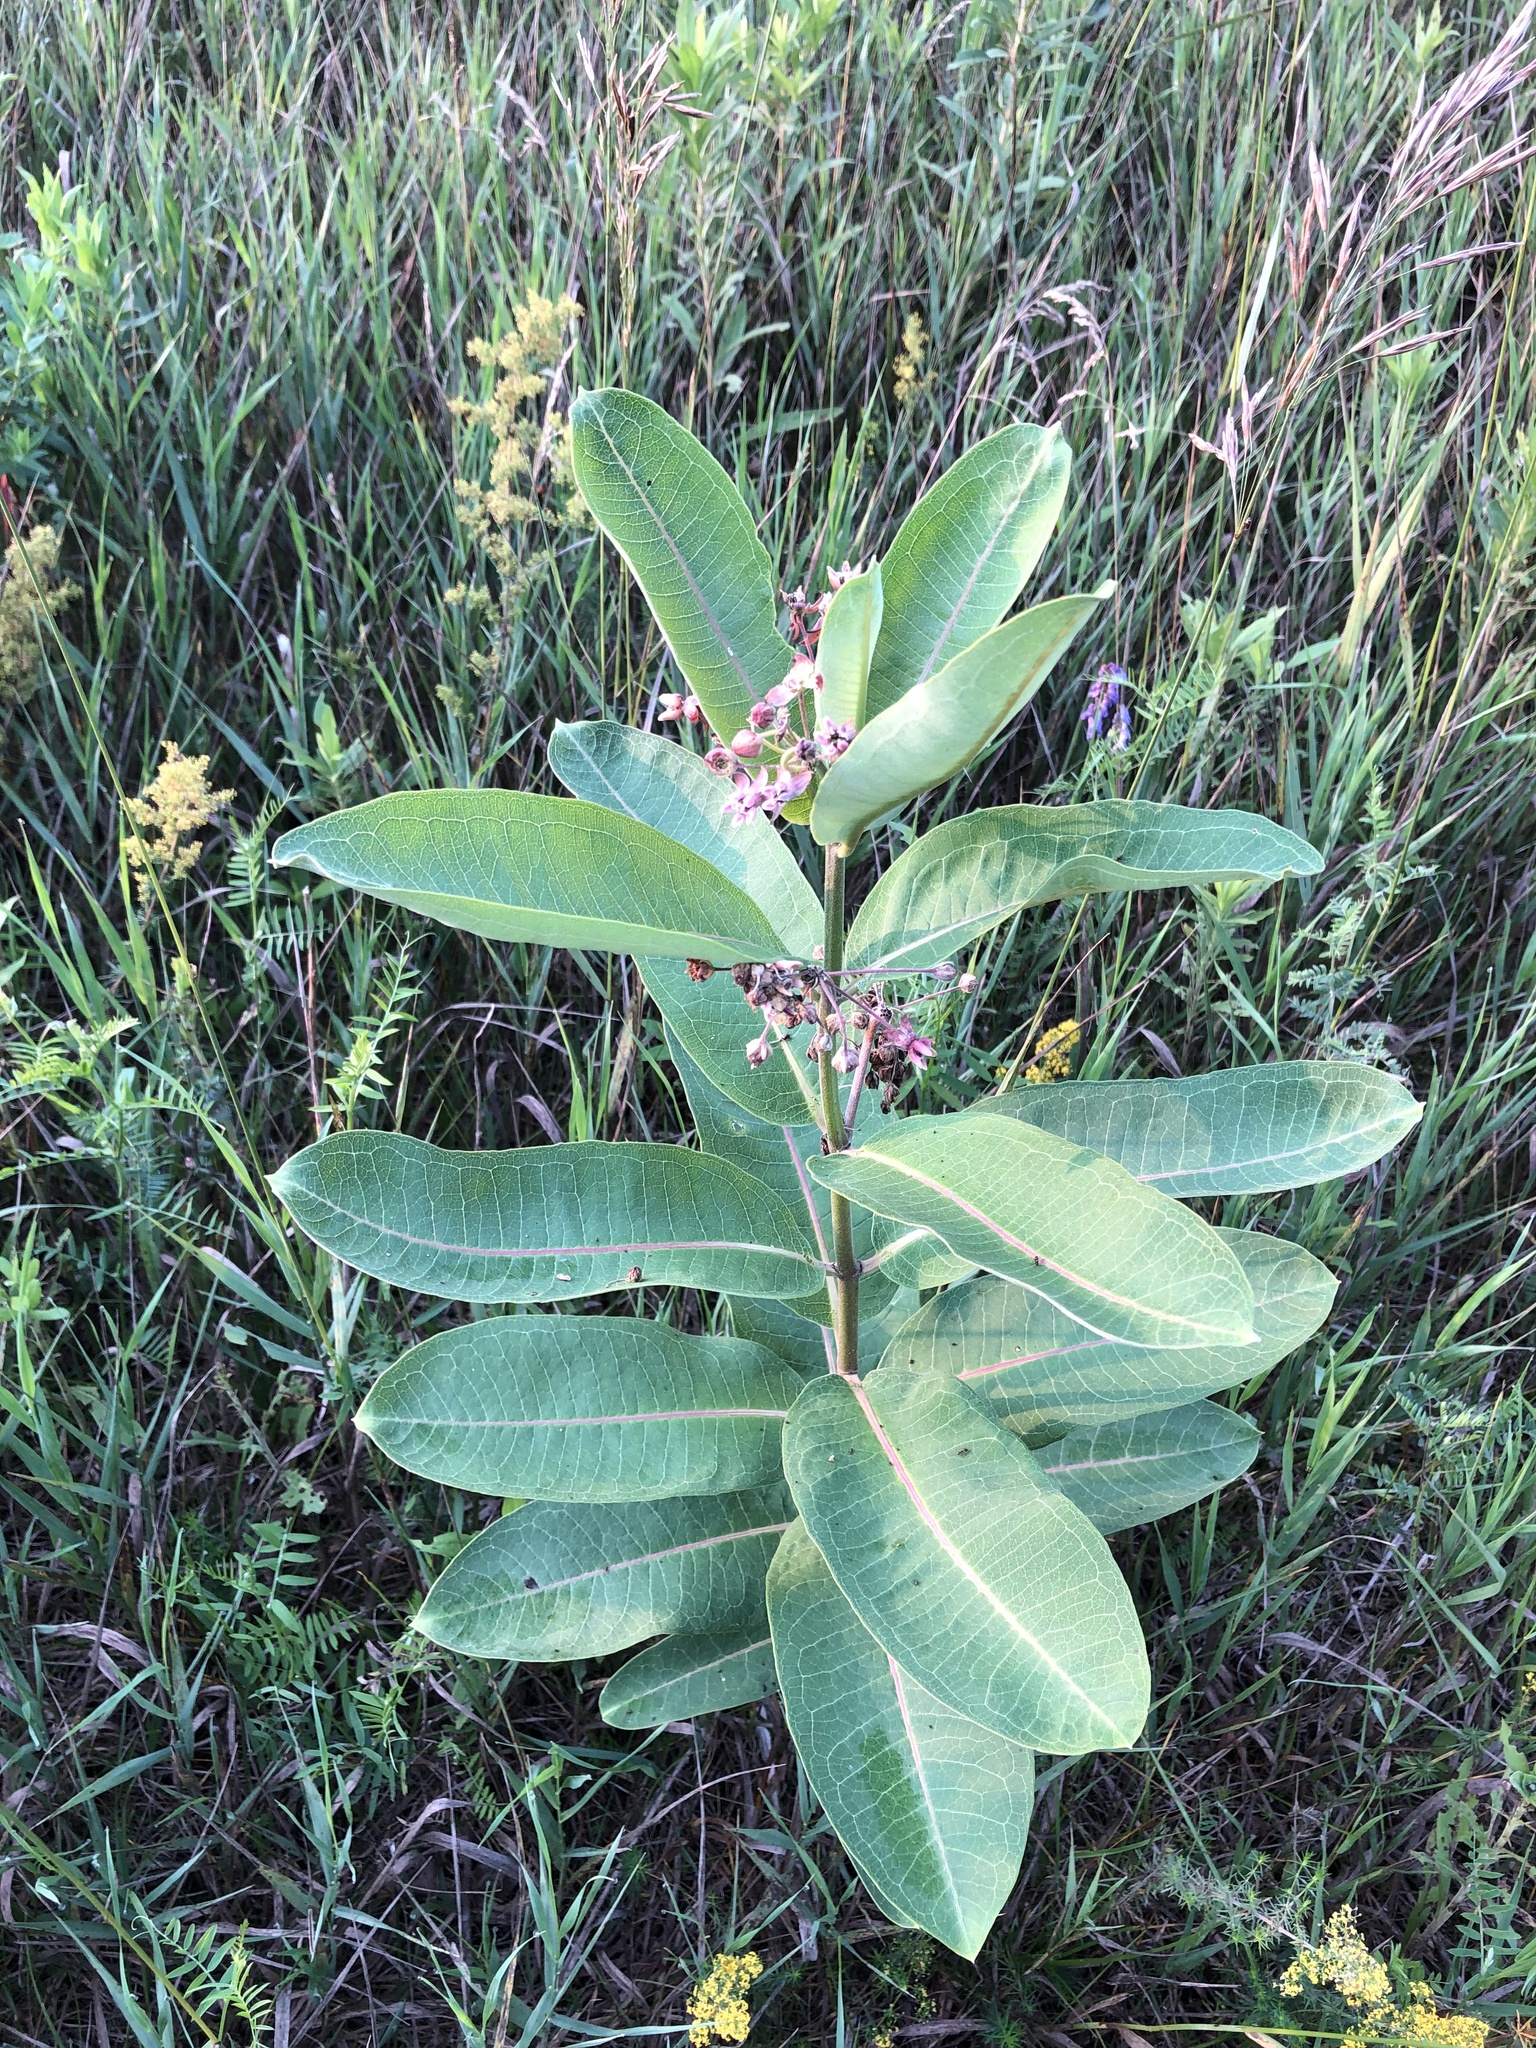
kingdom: Plantae
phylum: Tracheophyta
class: Magnoliopsida
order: Gentianales
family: Apocynaceae
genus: Asclepias
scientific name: Asclepias syriaca
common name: Common milkweed
